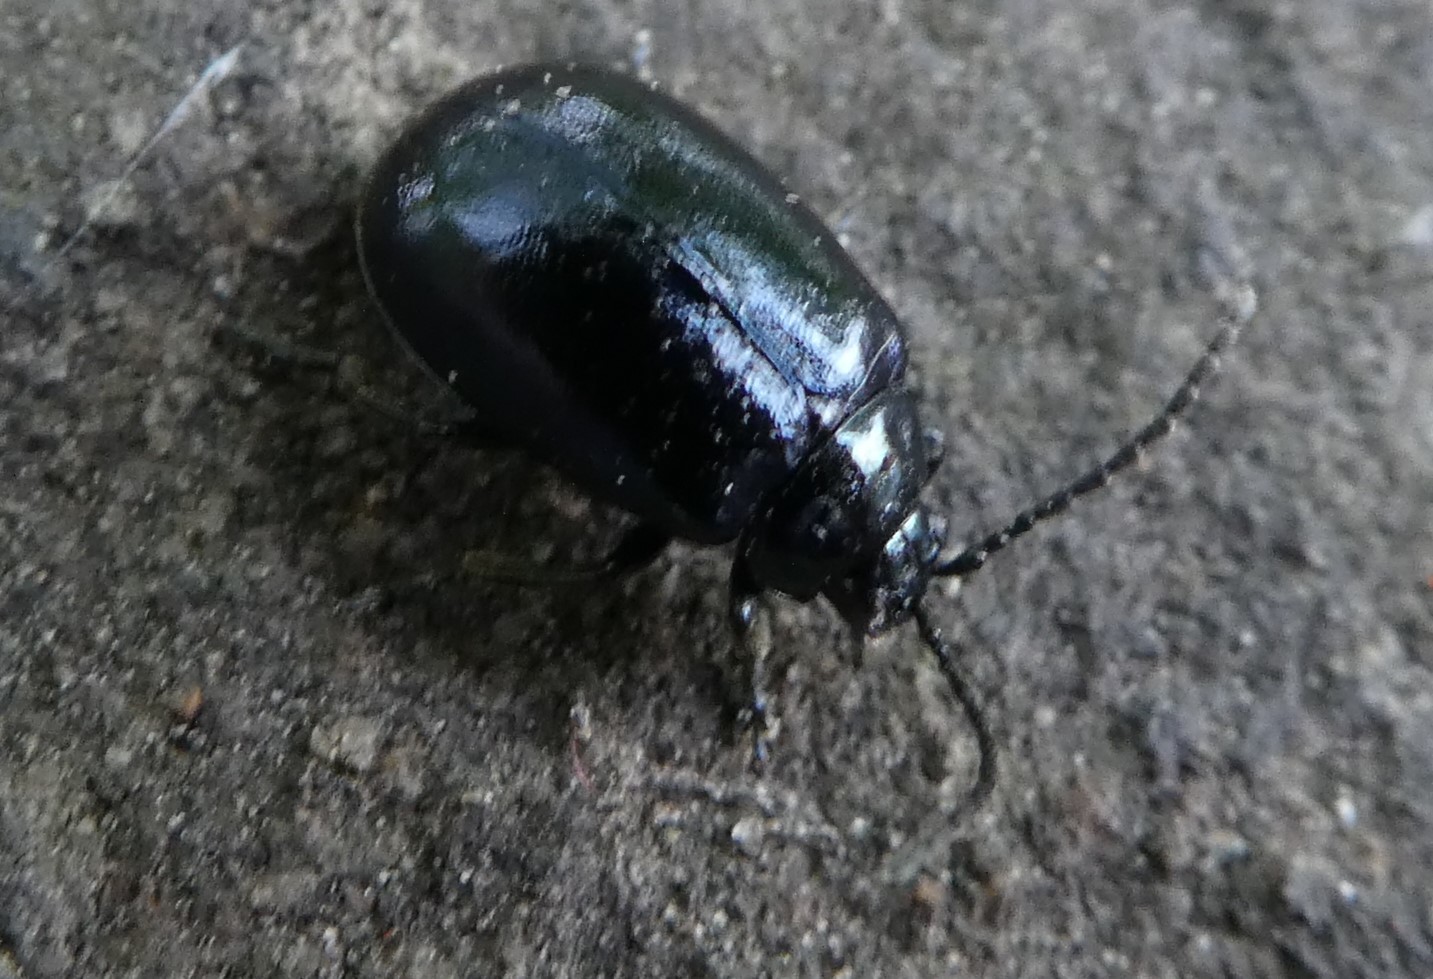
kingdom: Animalia
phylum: Arthropoda
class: Insecta
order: Coleoptera
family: Chrysomelidae
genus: Agelastica
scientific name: Agelastica alni
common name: Alder leaf beetle
